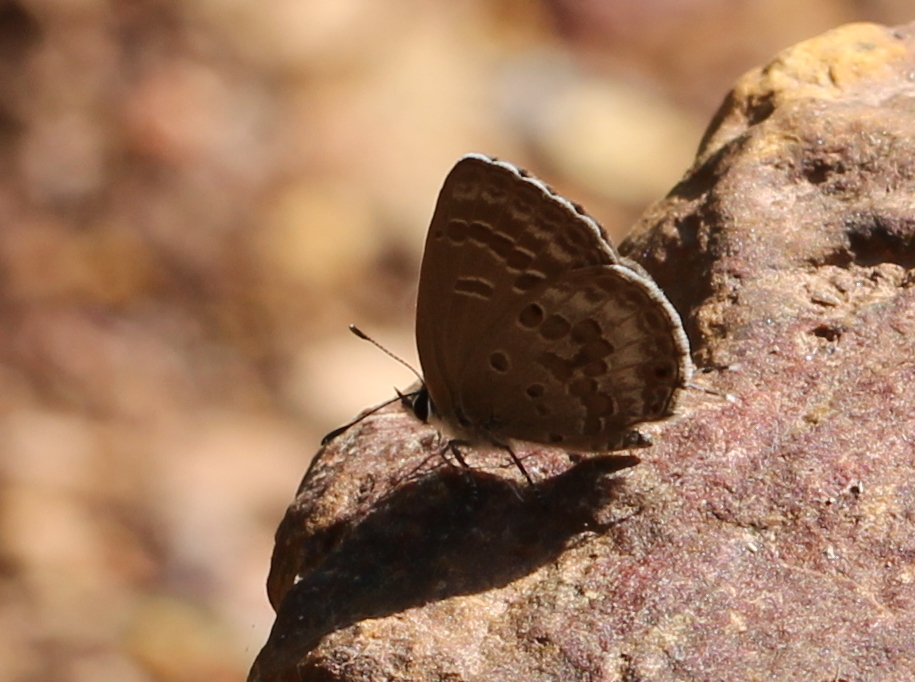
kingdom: Animalia
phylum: Arthropoda
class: Insecta
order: Lepidoptera
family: Lycaenidae
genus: Luthrodes
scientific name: Luthrodes pandava
